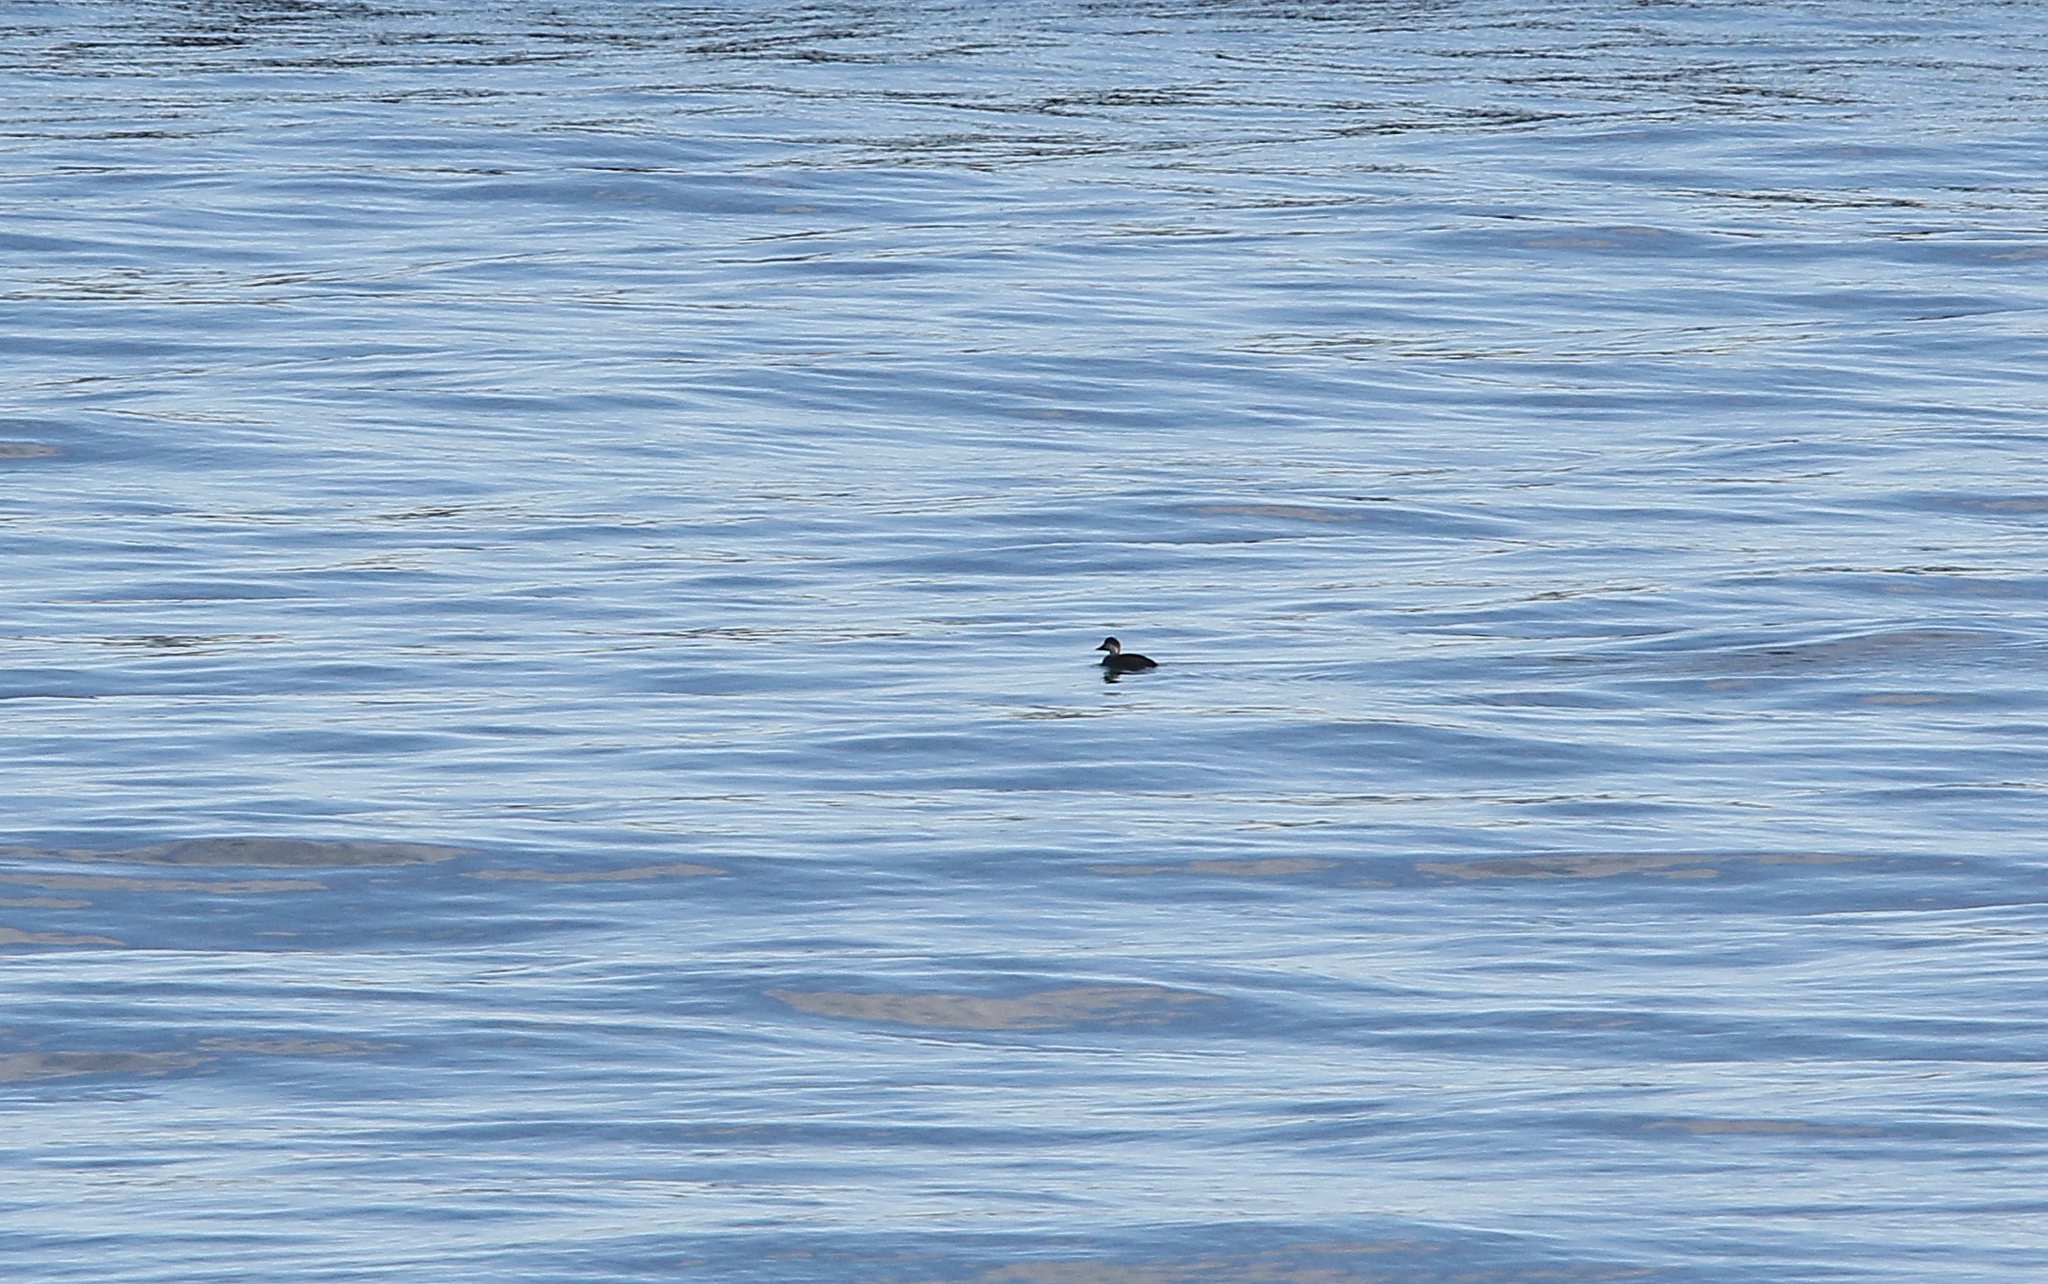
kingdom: Animalia
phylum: Chordata
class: Aves
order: Anseriformes
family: Anatidae
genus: Melanitta
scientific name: Melanitta nigra
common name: Common scoter
